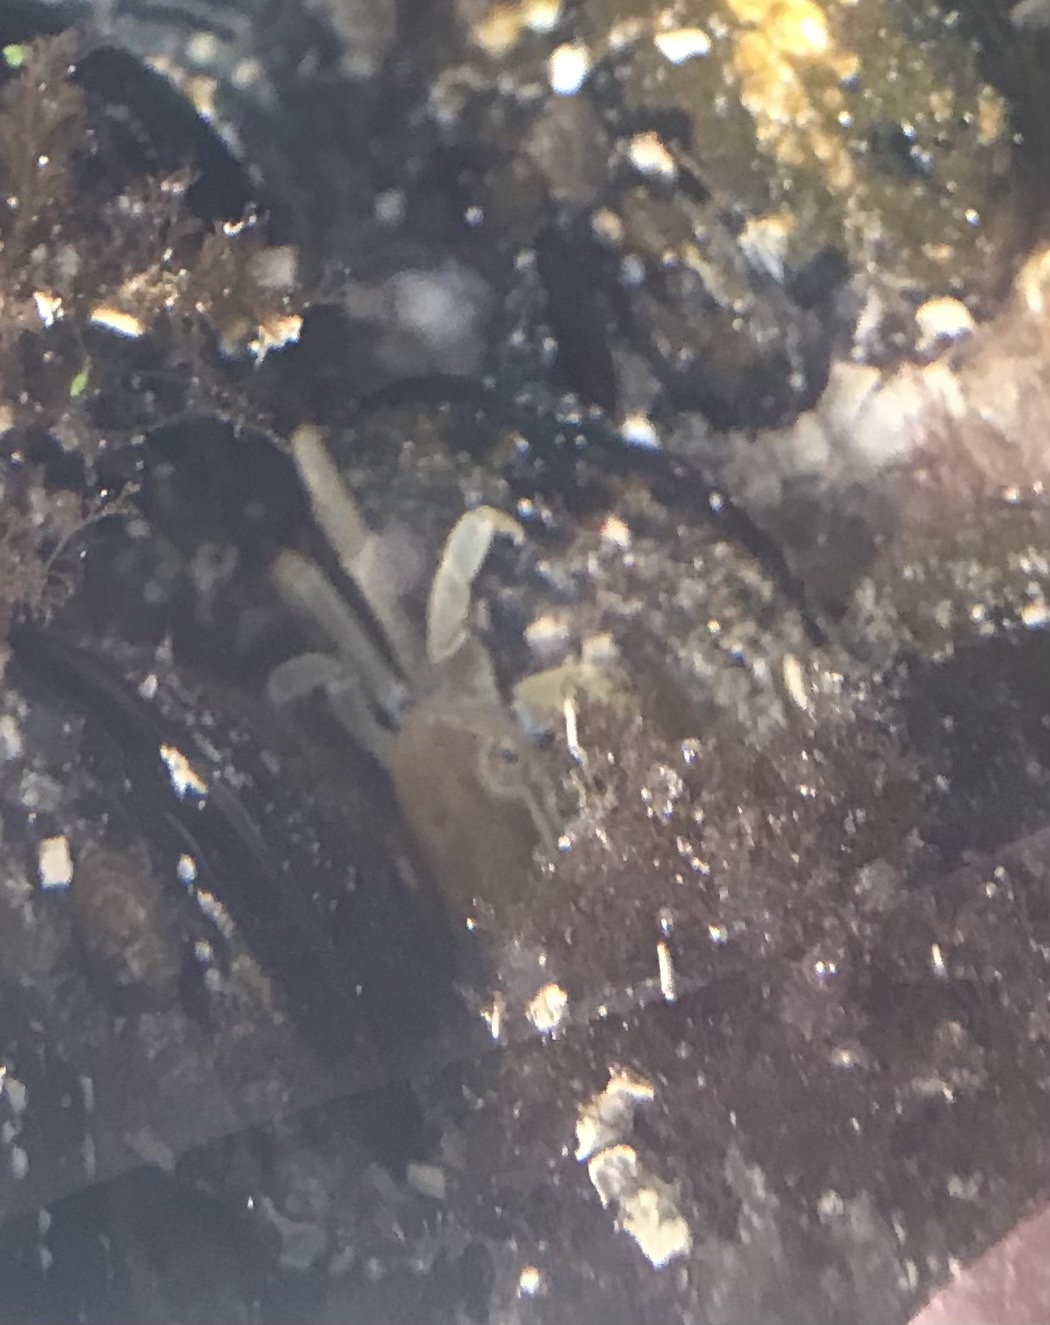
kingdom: Animalia
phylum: Arthropoda
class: Malacostraca
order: Decapoda
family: Varunidae
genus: Hemigrapsus
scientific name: Hemigrapsus nudus
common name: Purple shore crab
